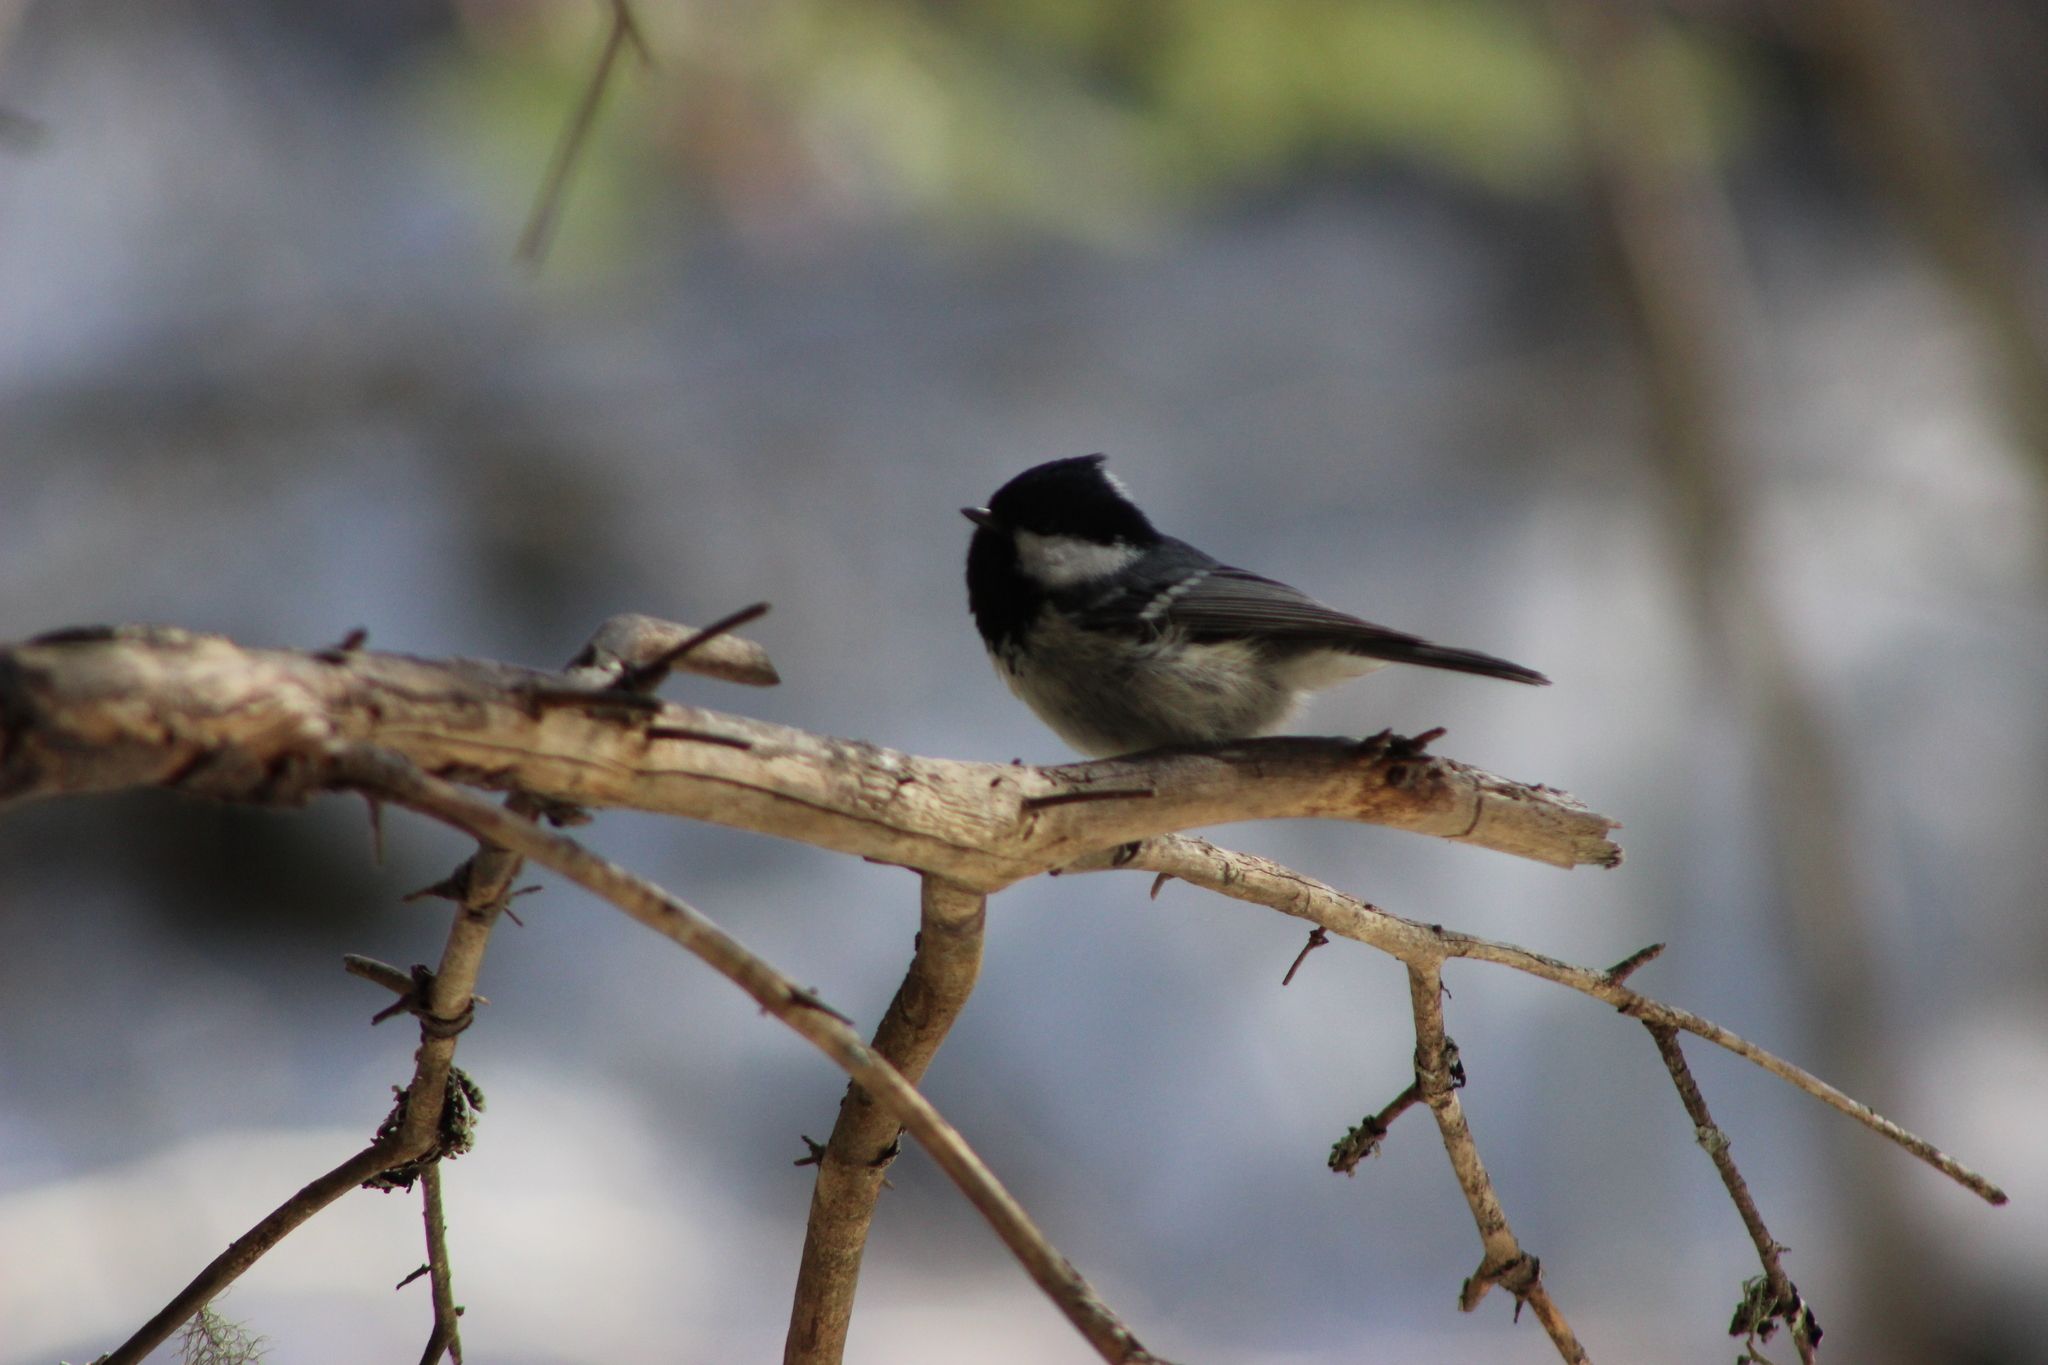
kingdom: Animalia
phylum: Chordata
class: Aves
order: Passeriformes
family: Paridae
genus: Periparus
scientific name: Periparus ater
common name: Coal tit
